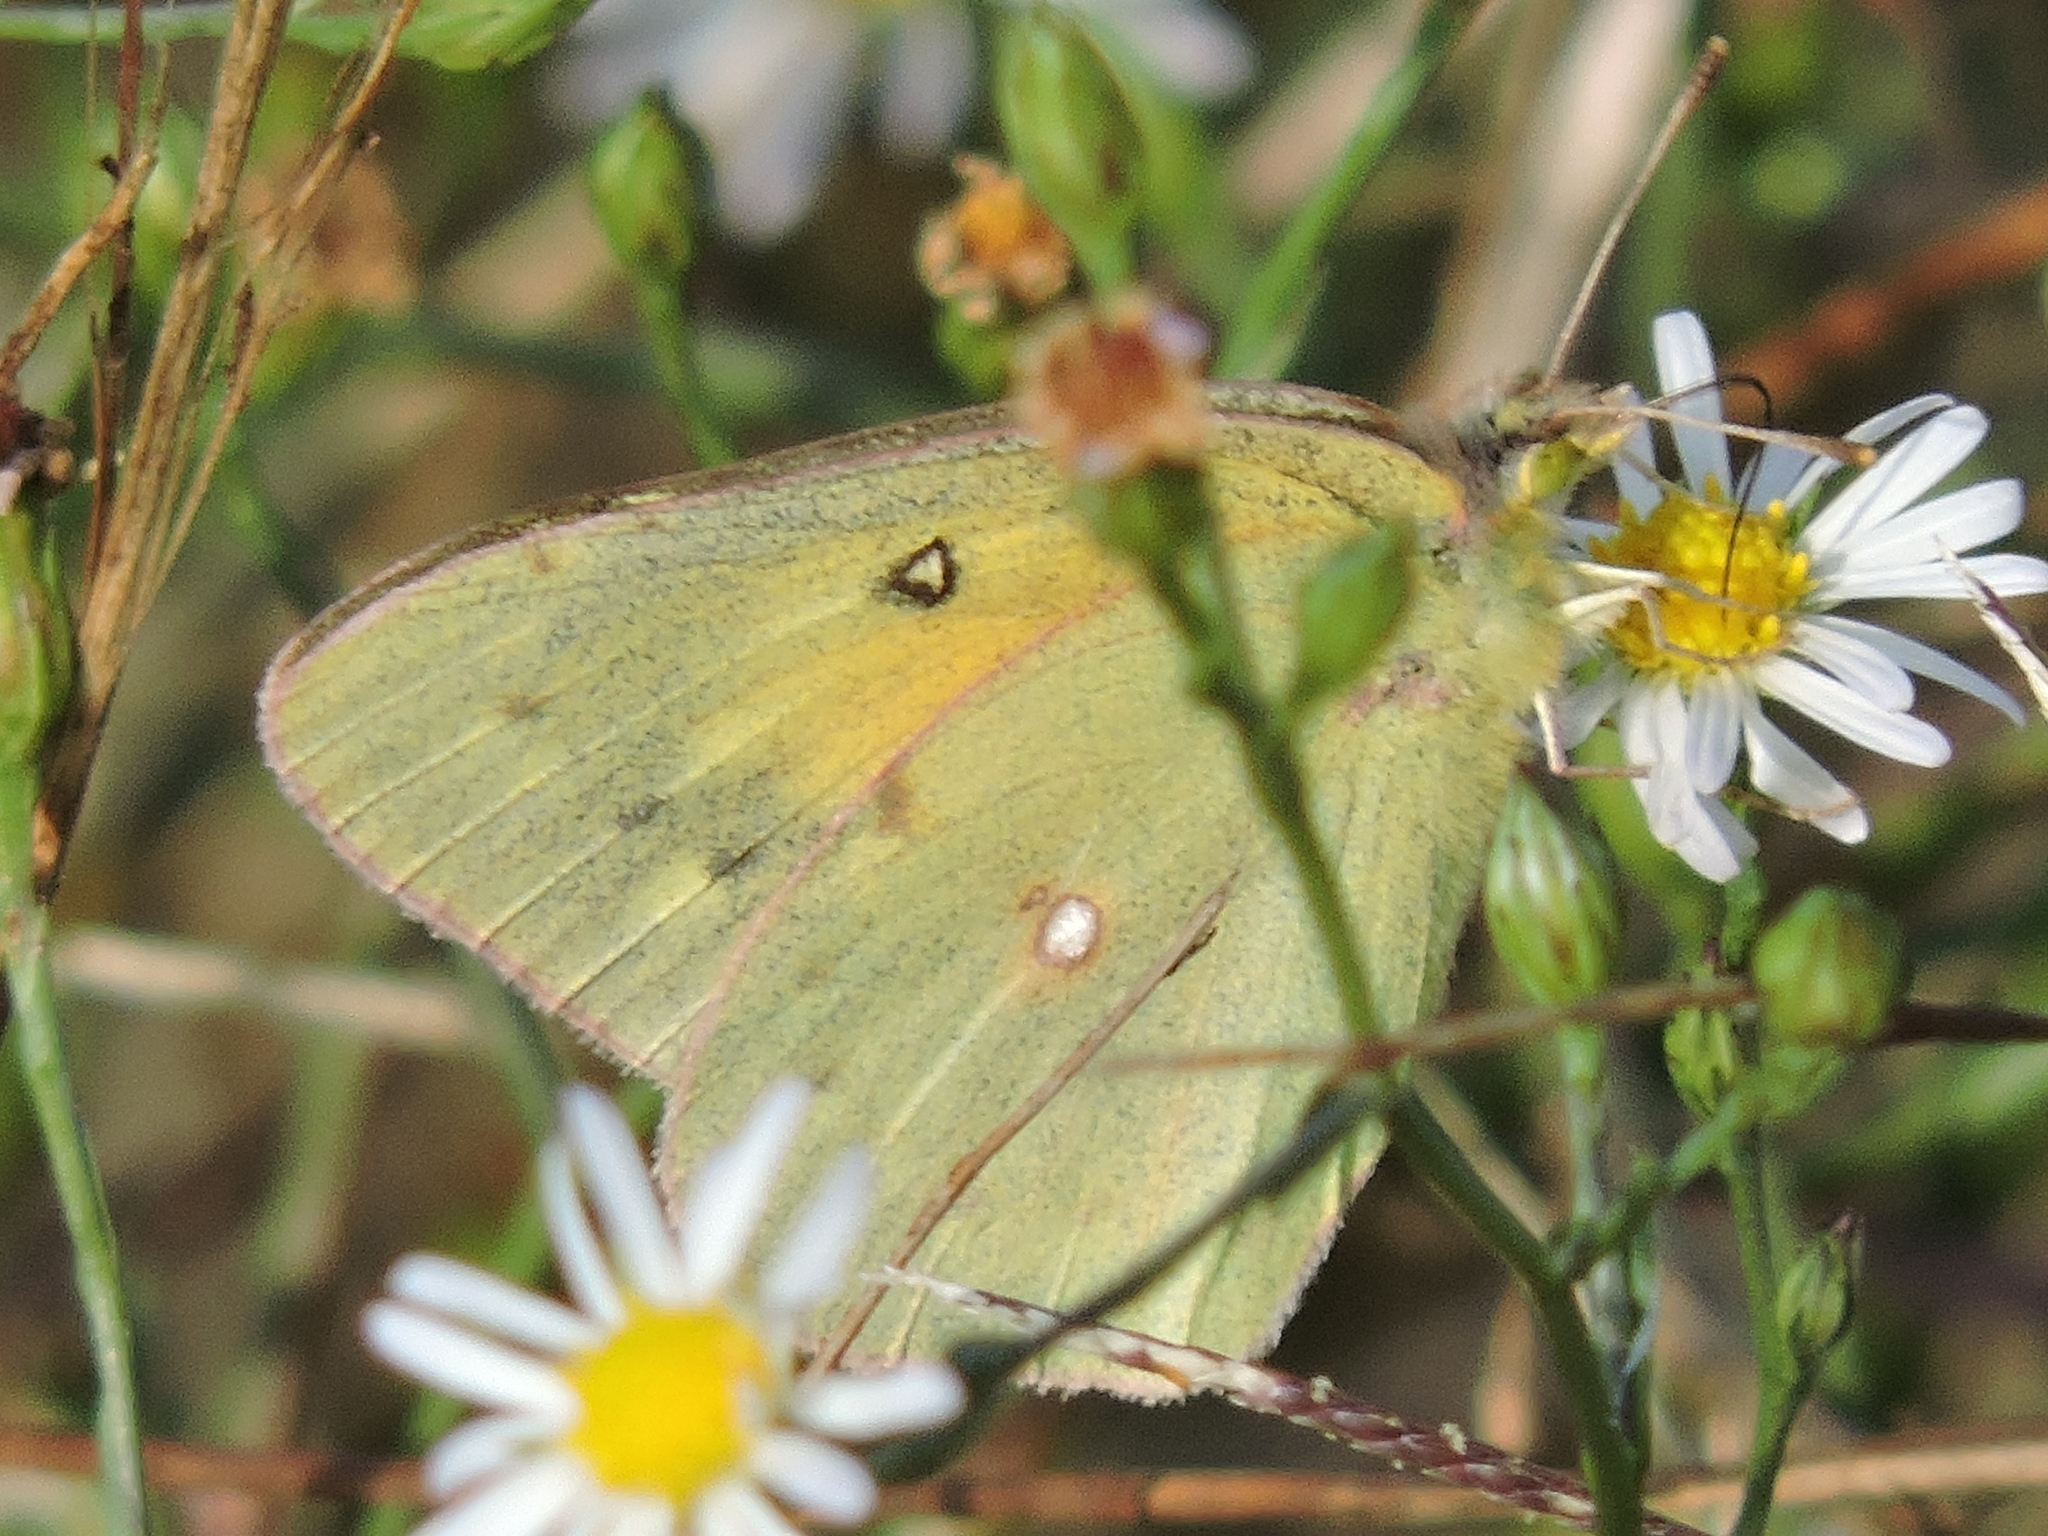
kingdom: Animalia
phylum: Arthropoda
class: Insecta
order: Lepidoptera
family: Pieridae
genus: Colias
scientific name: Colias eurytheme
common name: Alfalfa butterfly
